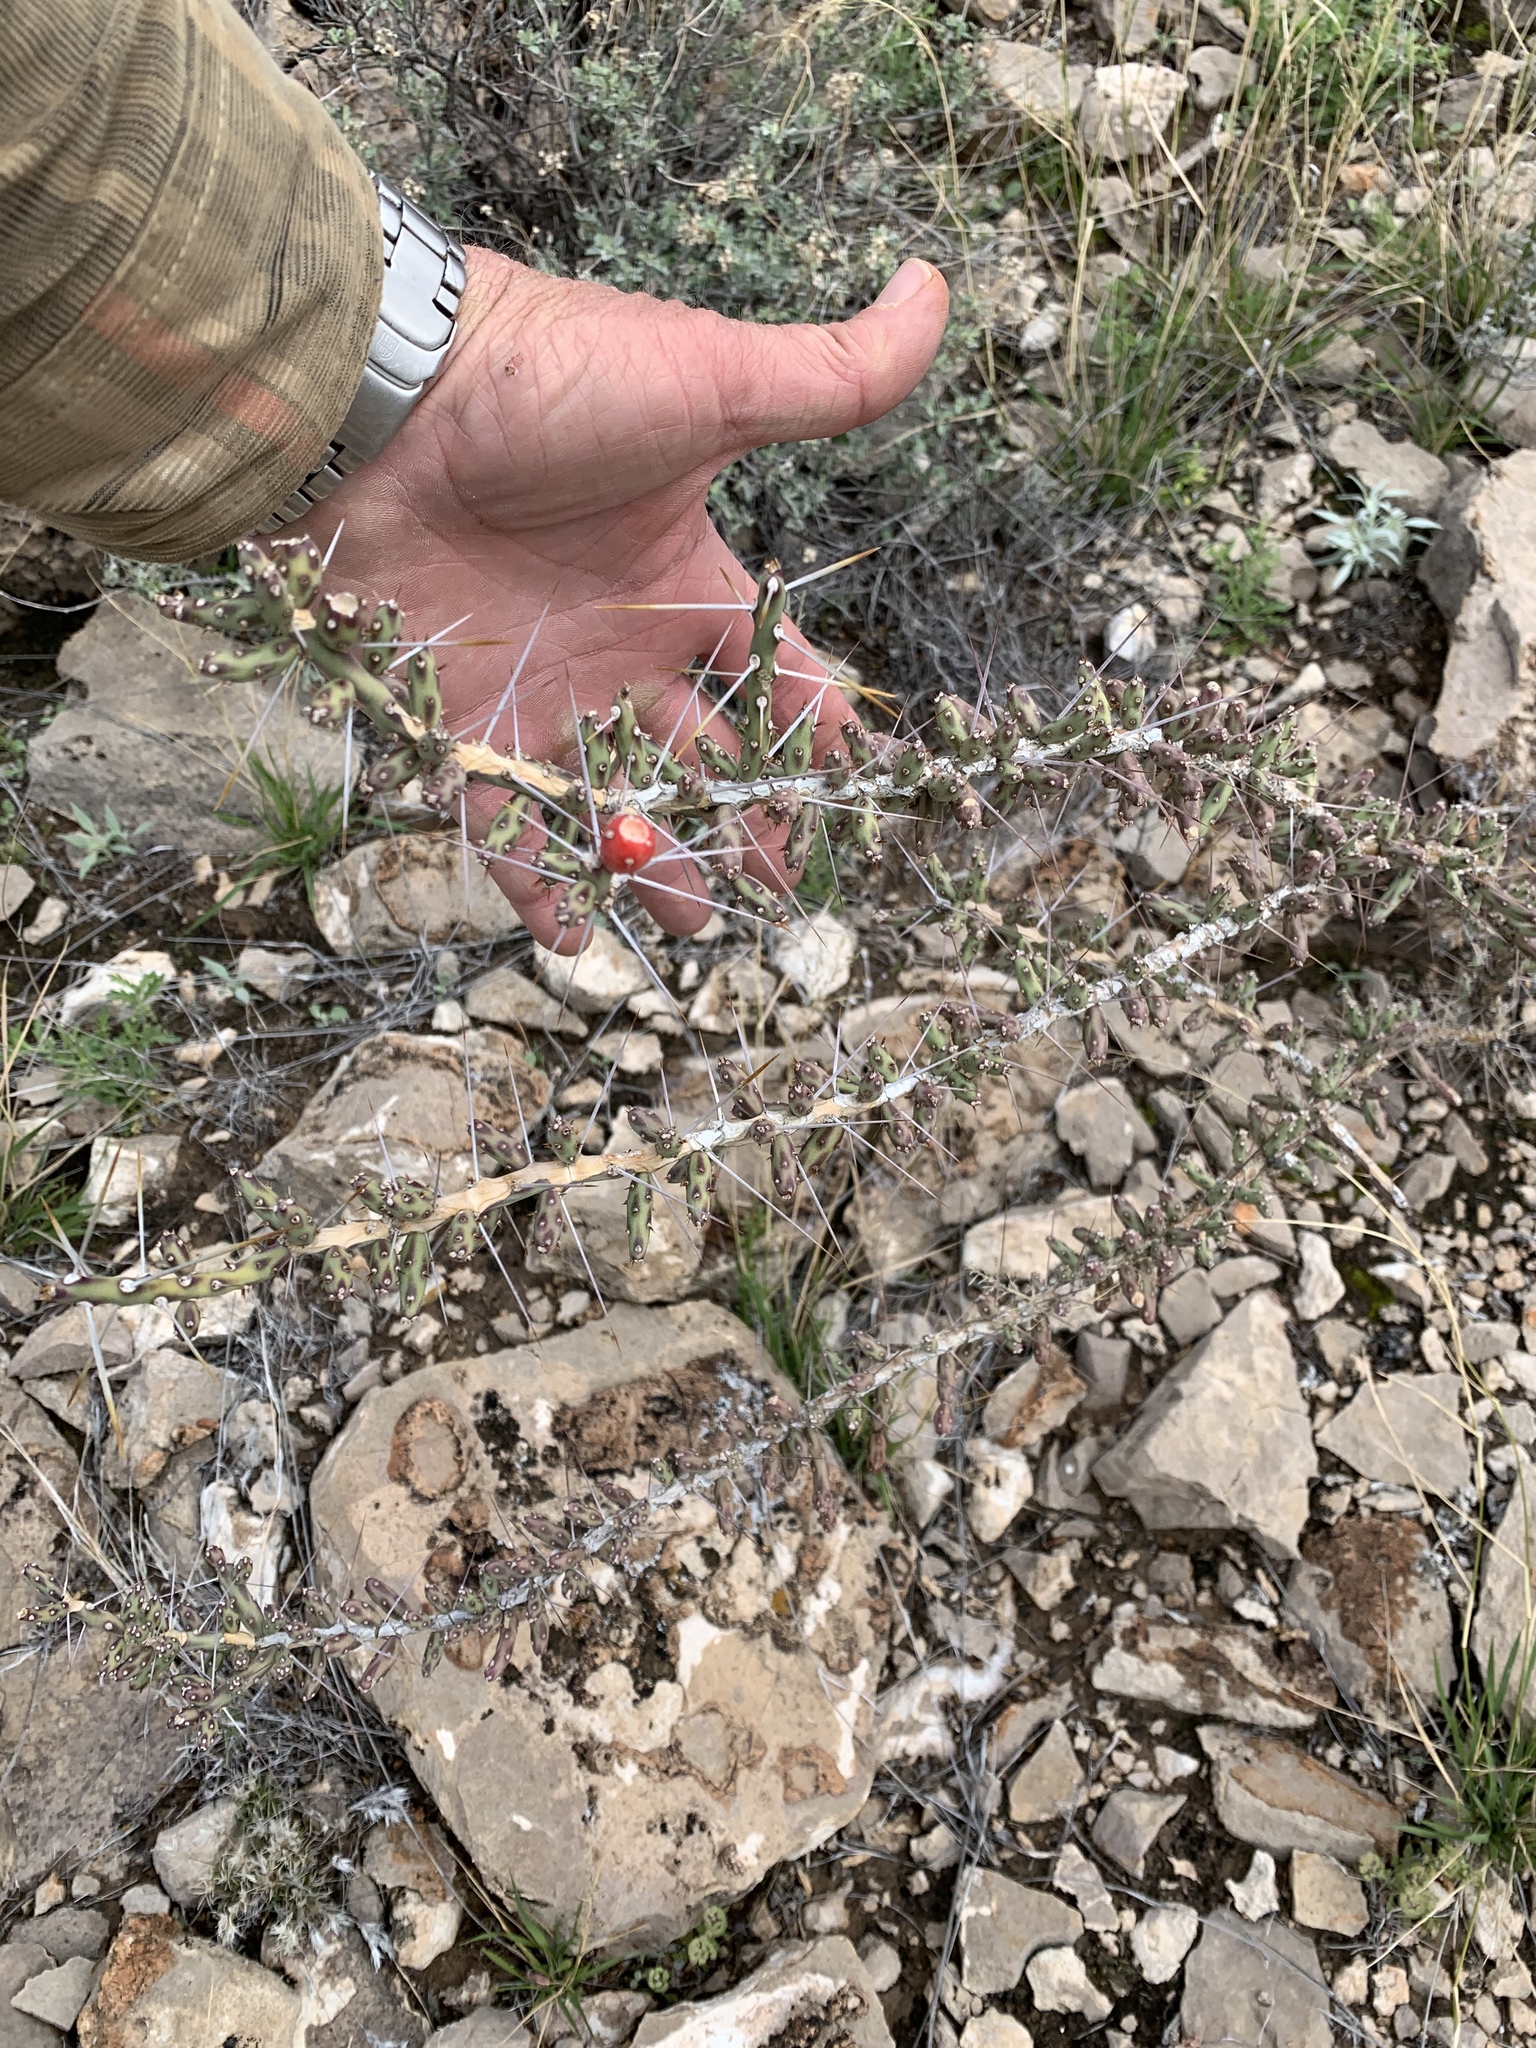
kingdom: Plantae
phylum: Tracheophyta
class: Magnoliopsida
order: Caryophyllales
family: Cactaceae
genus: Cylindropuntia
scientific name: Cylindropuntia leptocaulis
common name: Christmas cactus
